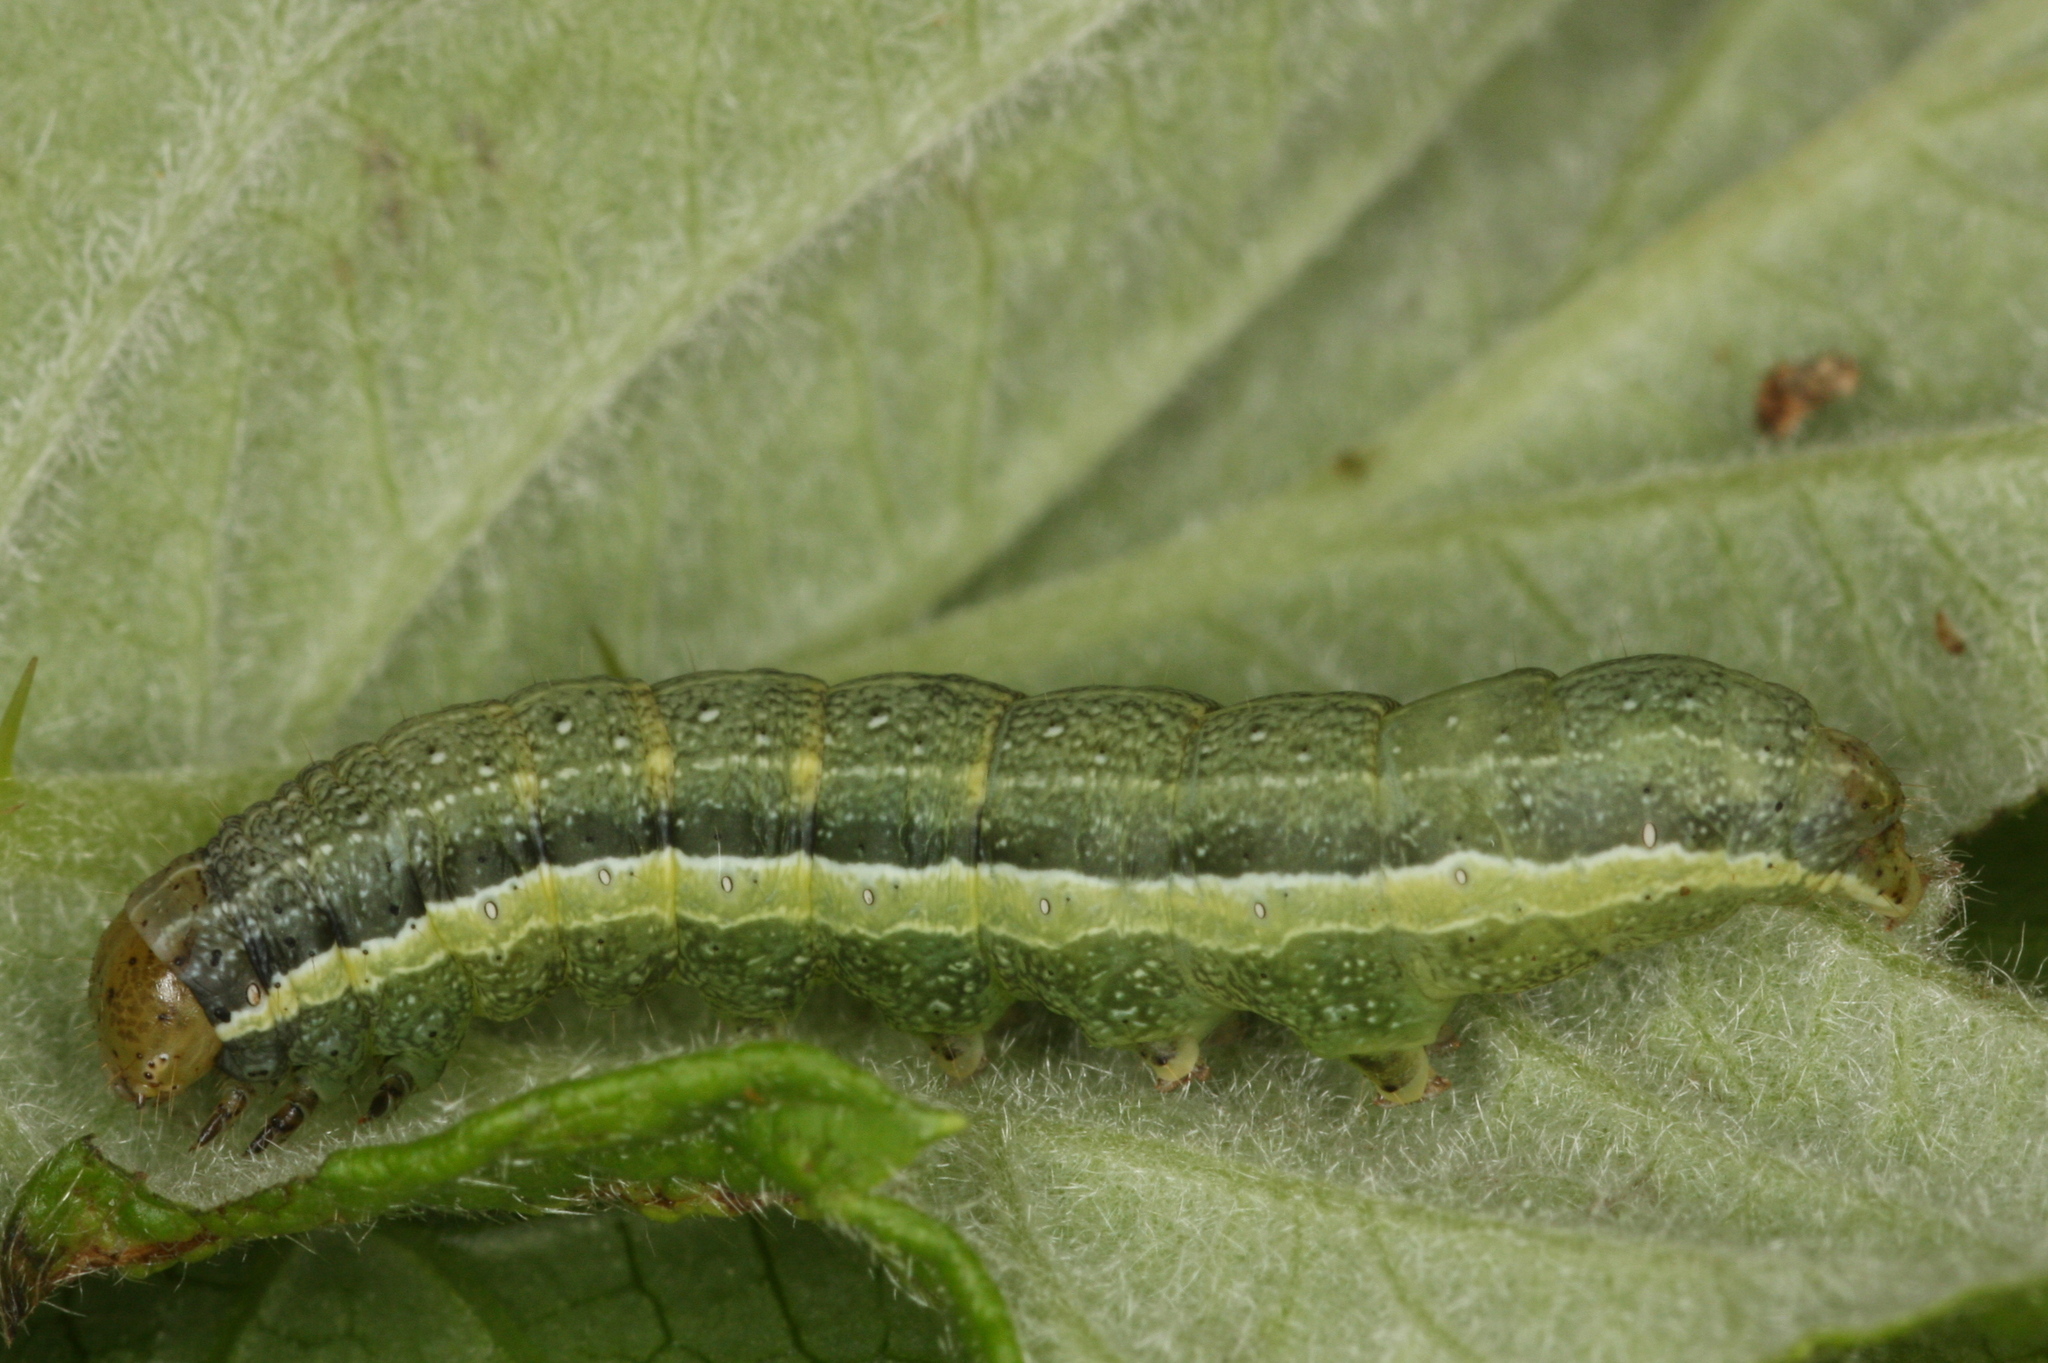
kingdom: Animalia
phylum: Arthropoda
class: Insecta
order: Lepidoptera
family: Noctuidae
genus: Orthosia
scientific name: Orthosia gracilis
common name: Powdered quaker
